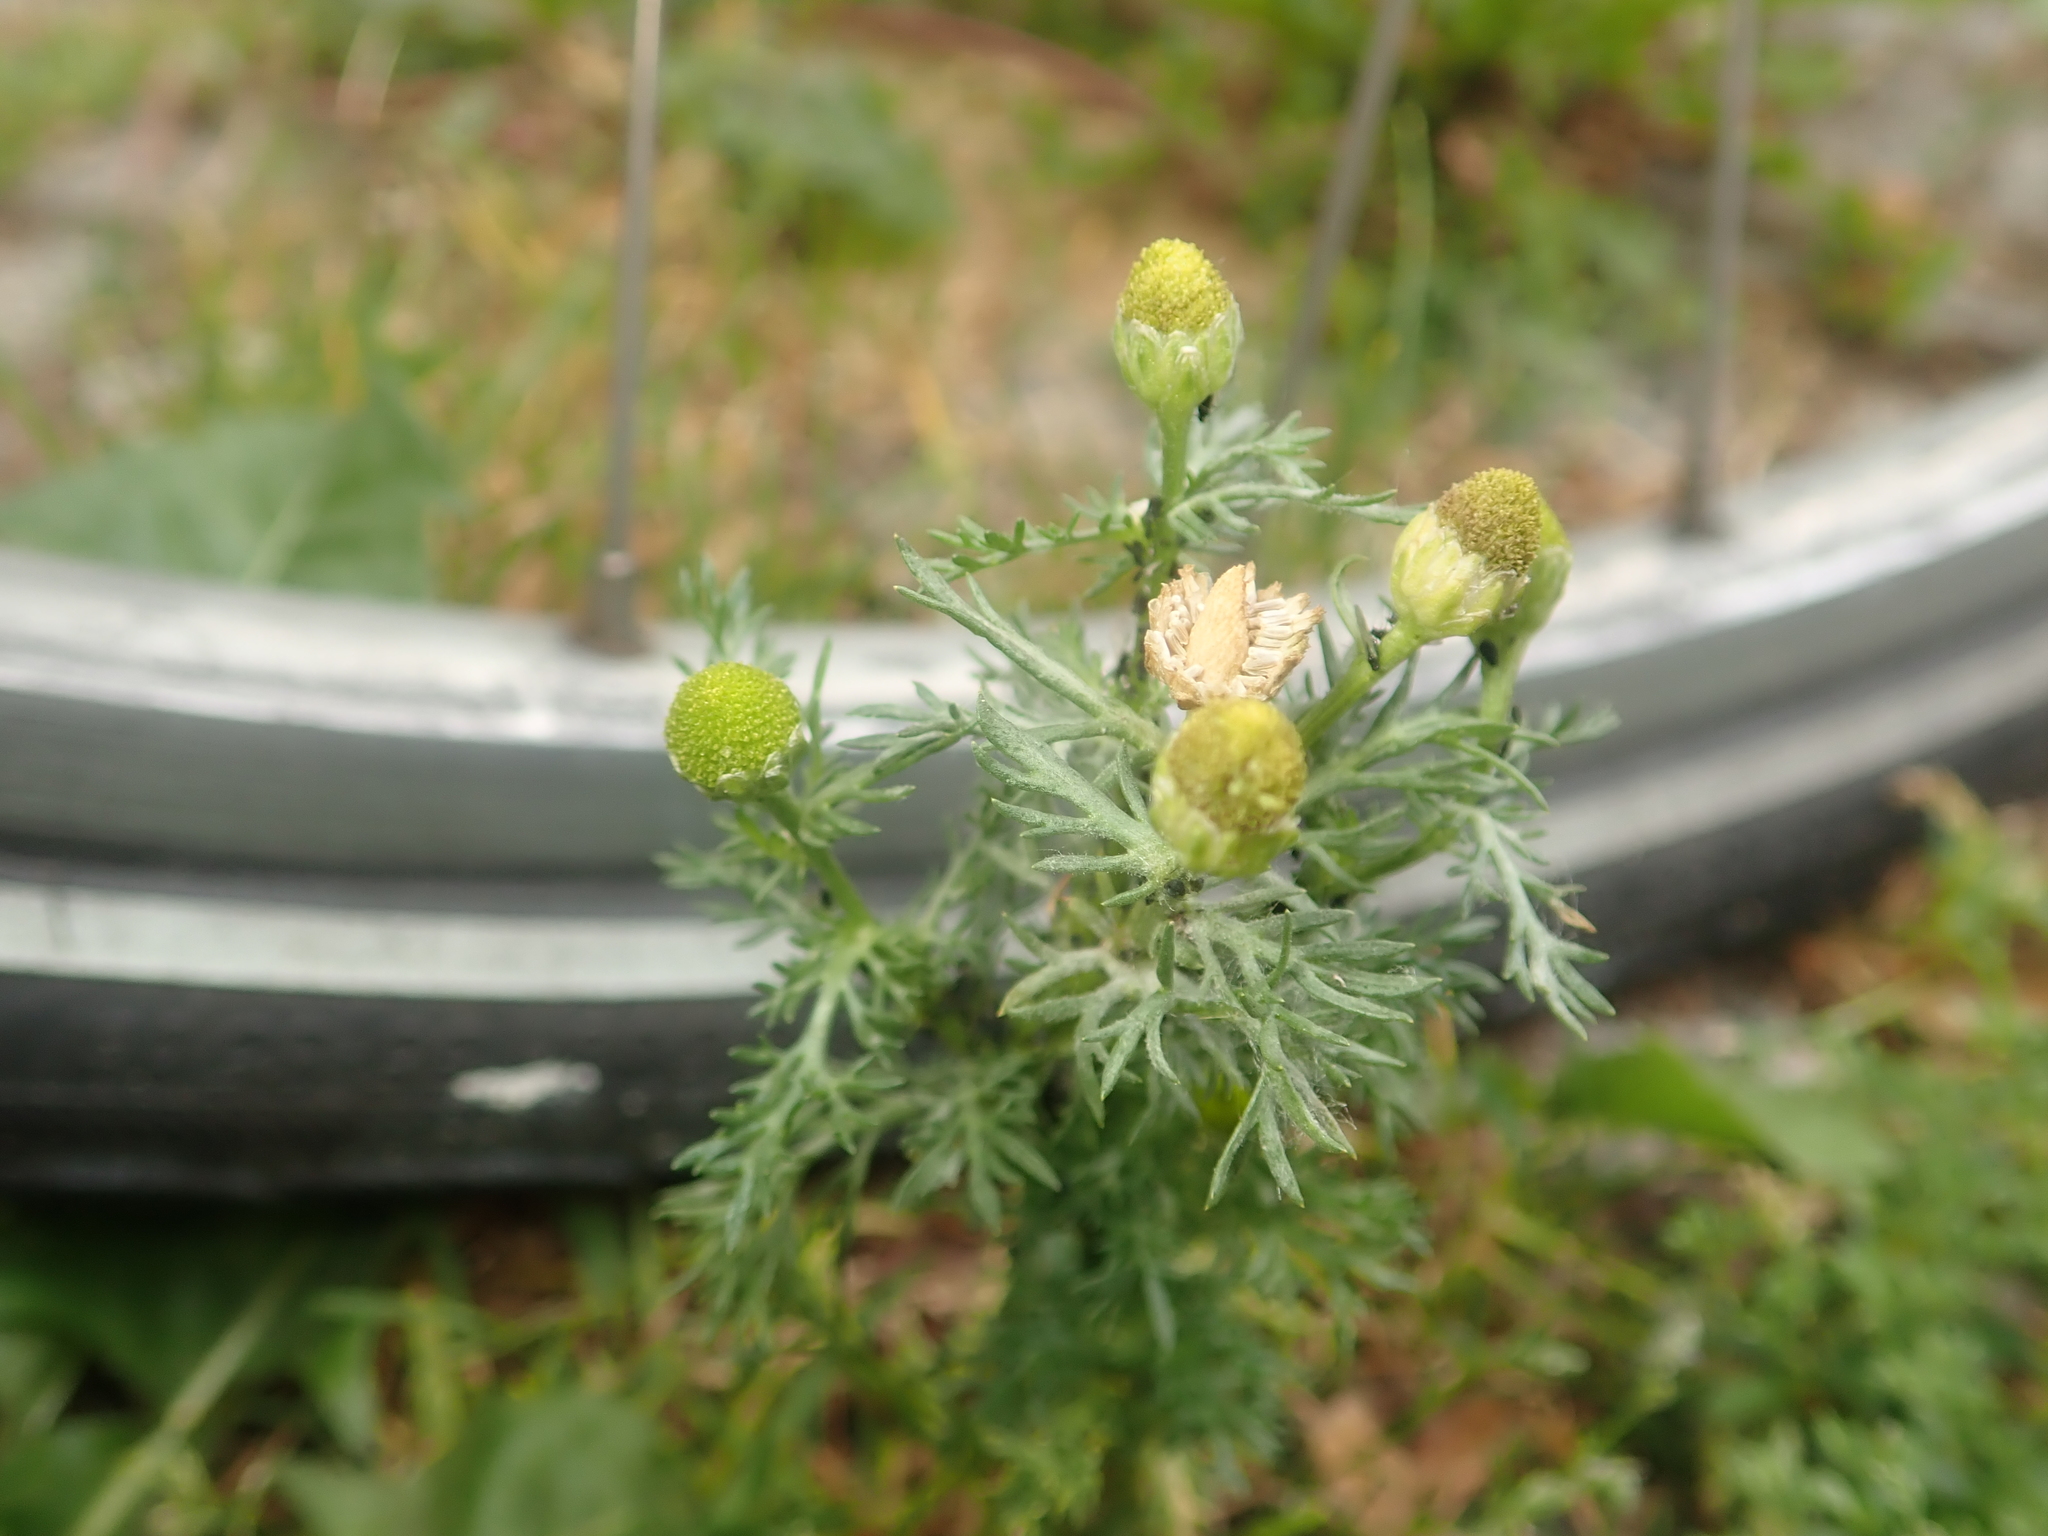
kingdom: Plantae
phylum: Tracheophyta
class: Magnoliopsida
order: Asterales
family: Asteraceae
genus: Matricaria
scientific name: Matricaria discoidea
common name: Disc mayweed
